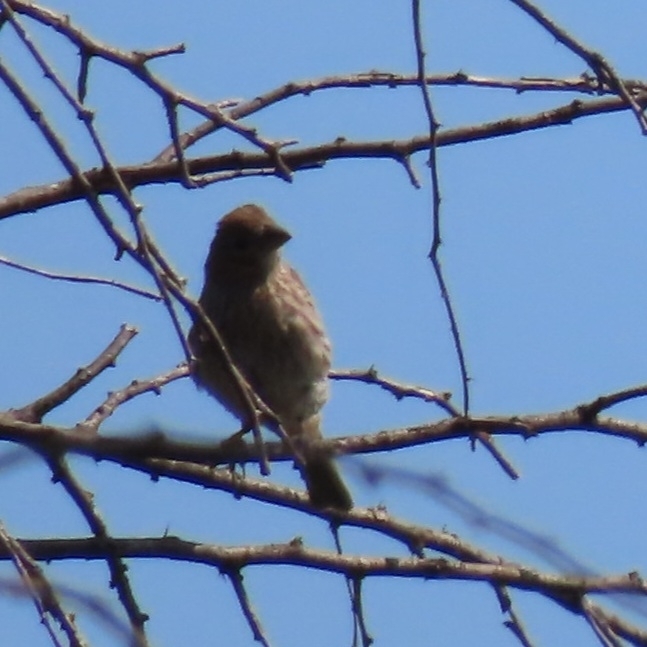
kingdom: Animalia
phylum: Chordata
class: Aves
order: Passeriformes
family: Fringillidae
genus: Haemorhous
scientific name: Haemorhous mexicanus
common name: House finch
